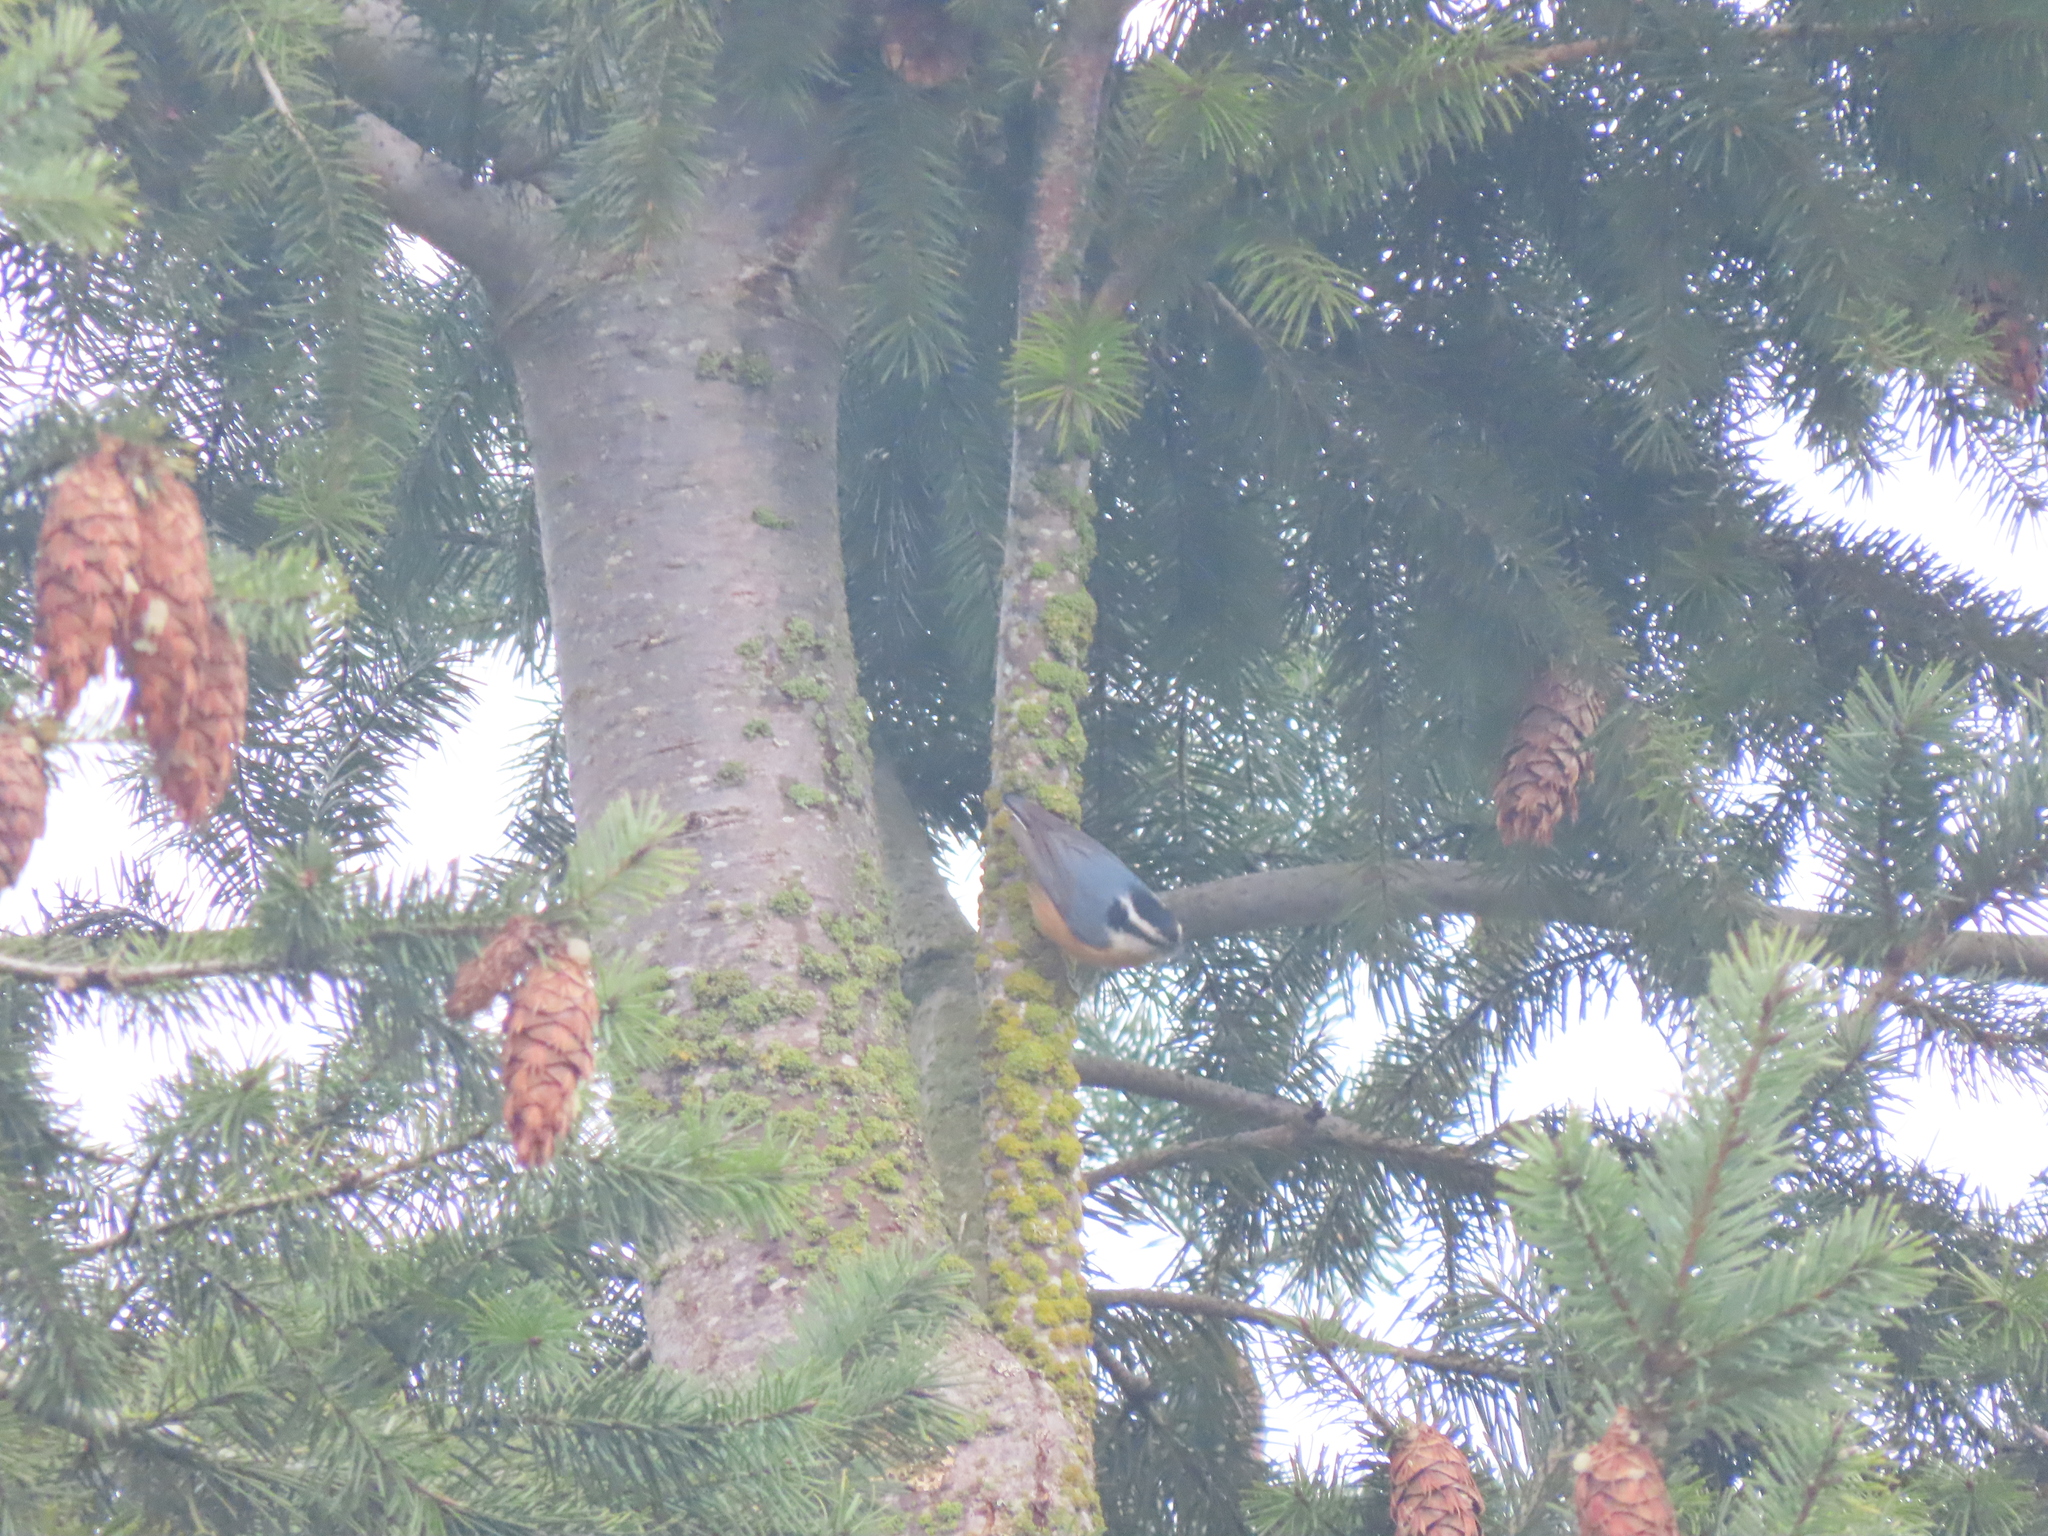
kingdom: Animalia
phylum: Chordata
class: Aves
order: Passeriformes
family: Sittidae
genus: Sitta
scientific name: Sitta canadensis
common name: Red-breasted nuthatch
